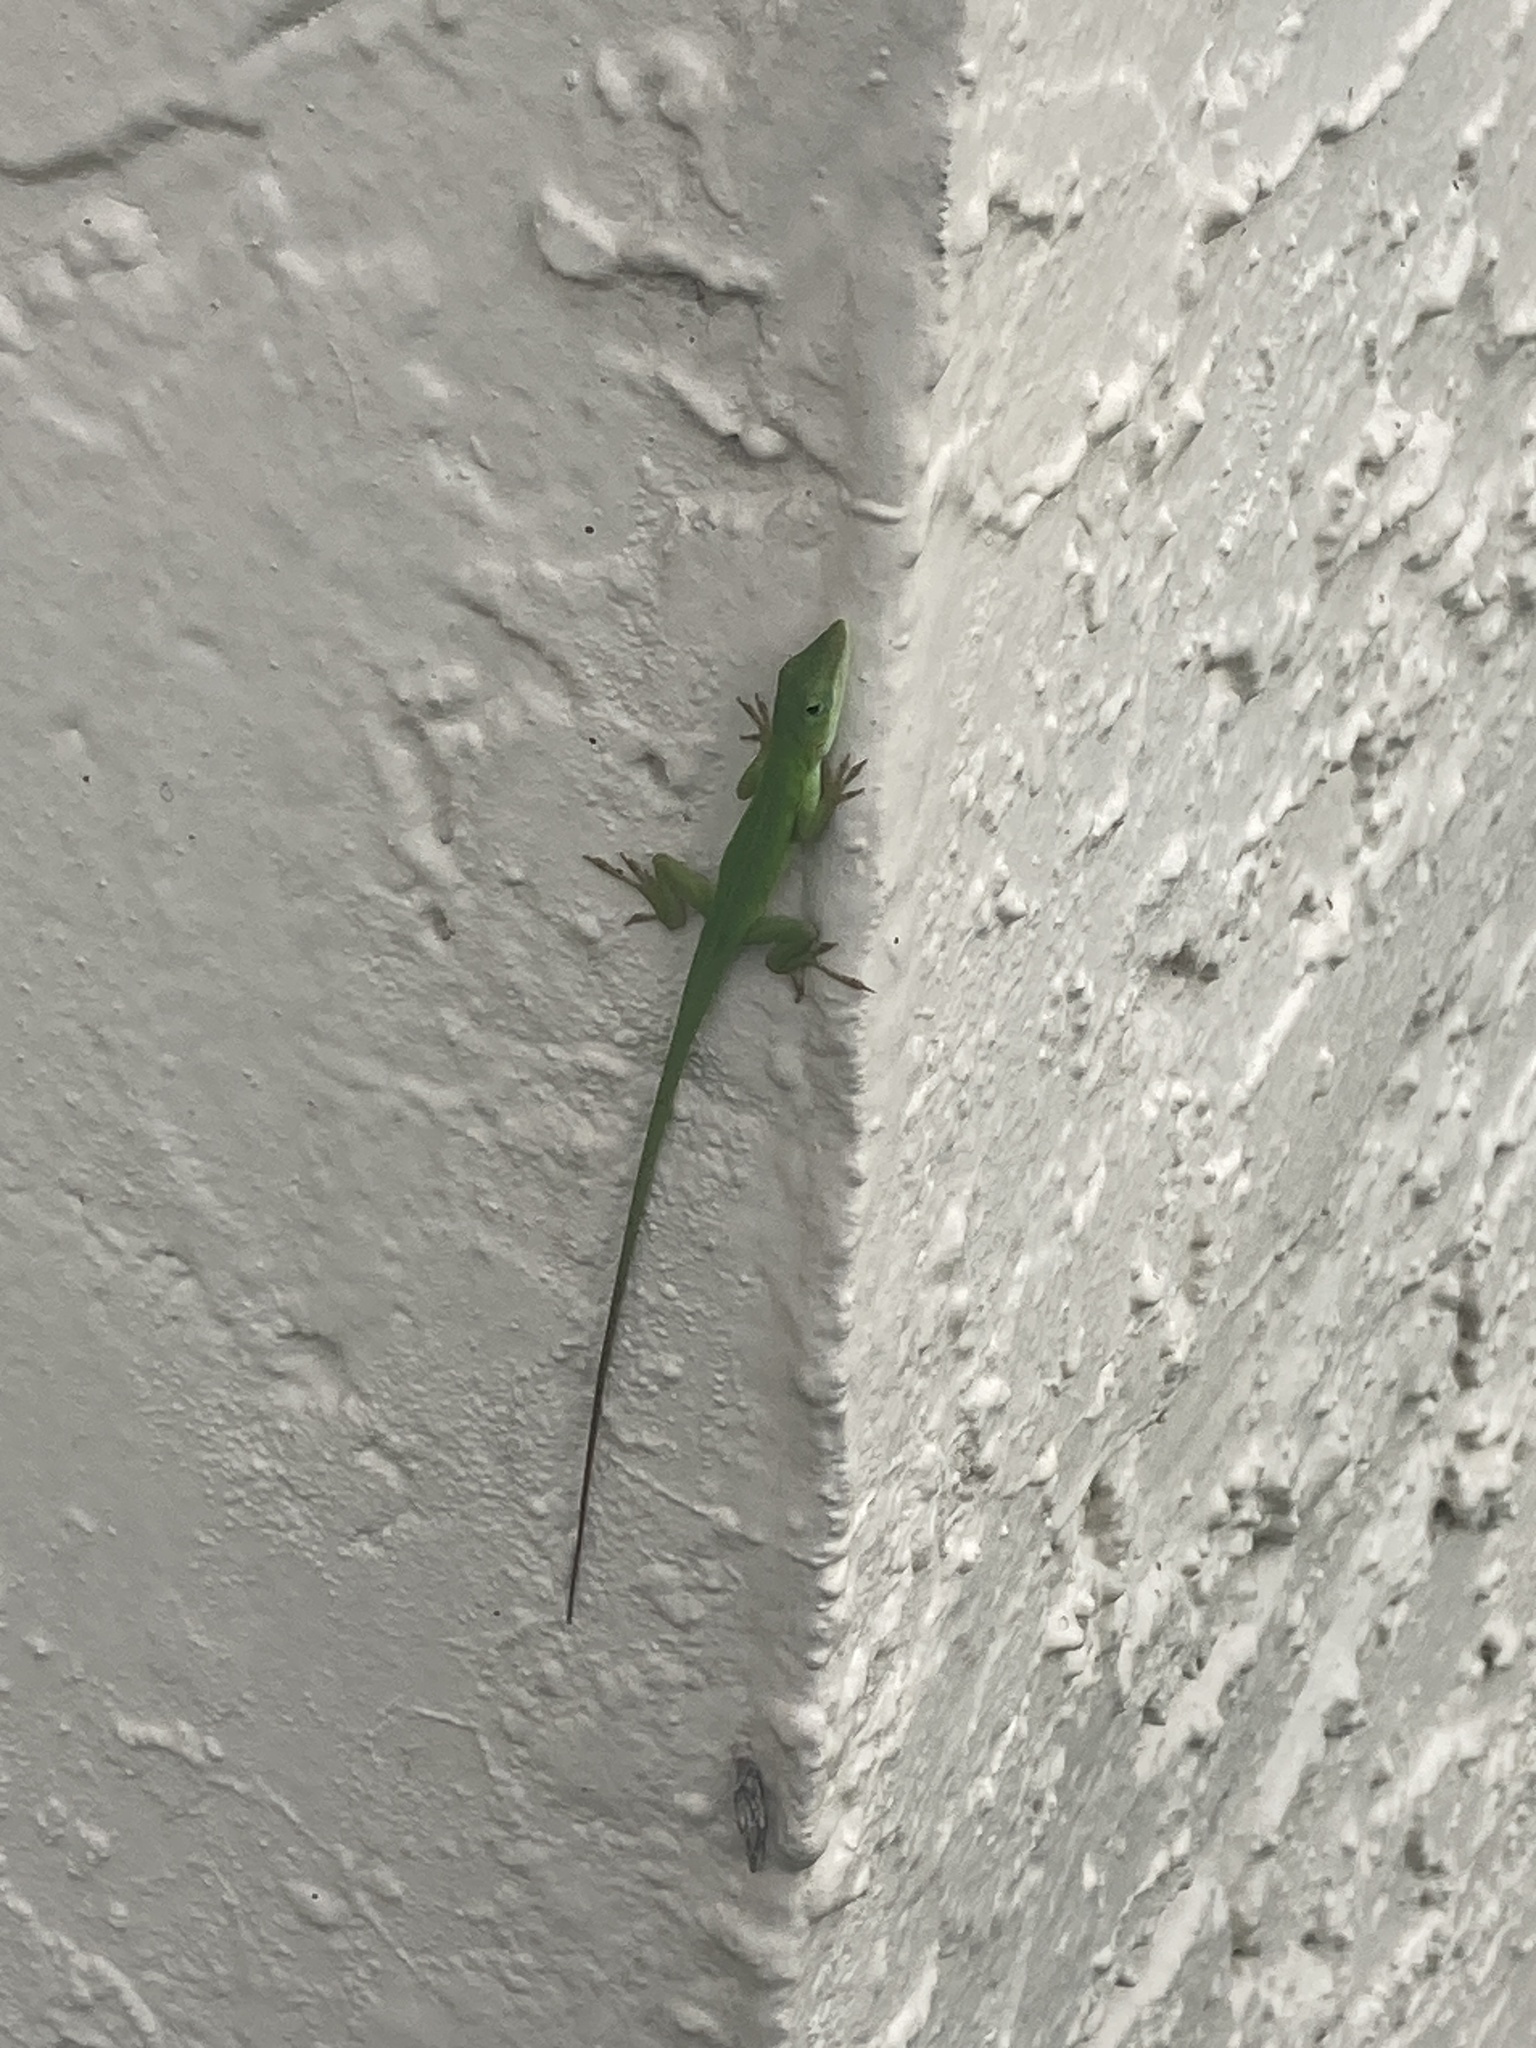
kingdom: Animalia
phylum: Chordata
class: Squamata
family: Dactyloidae
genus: Anolis
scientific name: Anolis carolinensis
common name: Green anole
